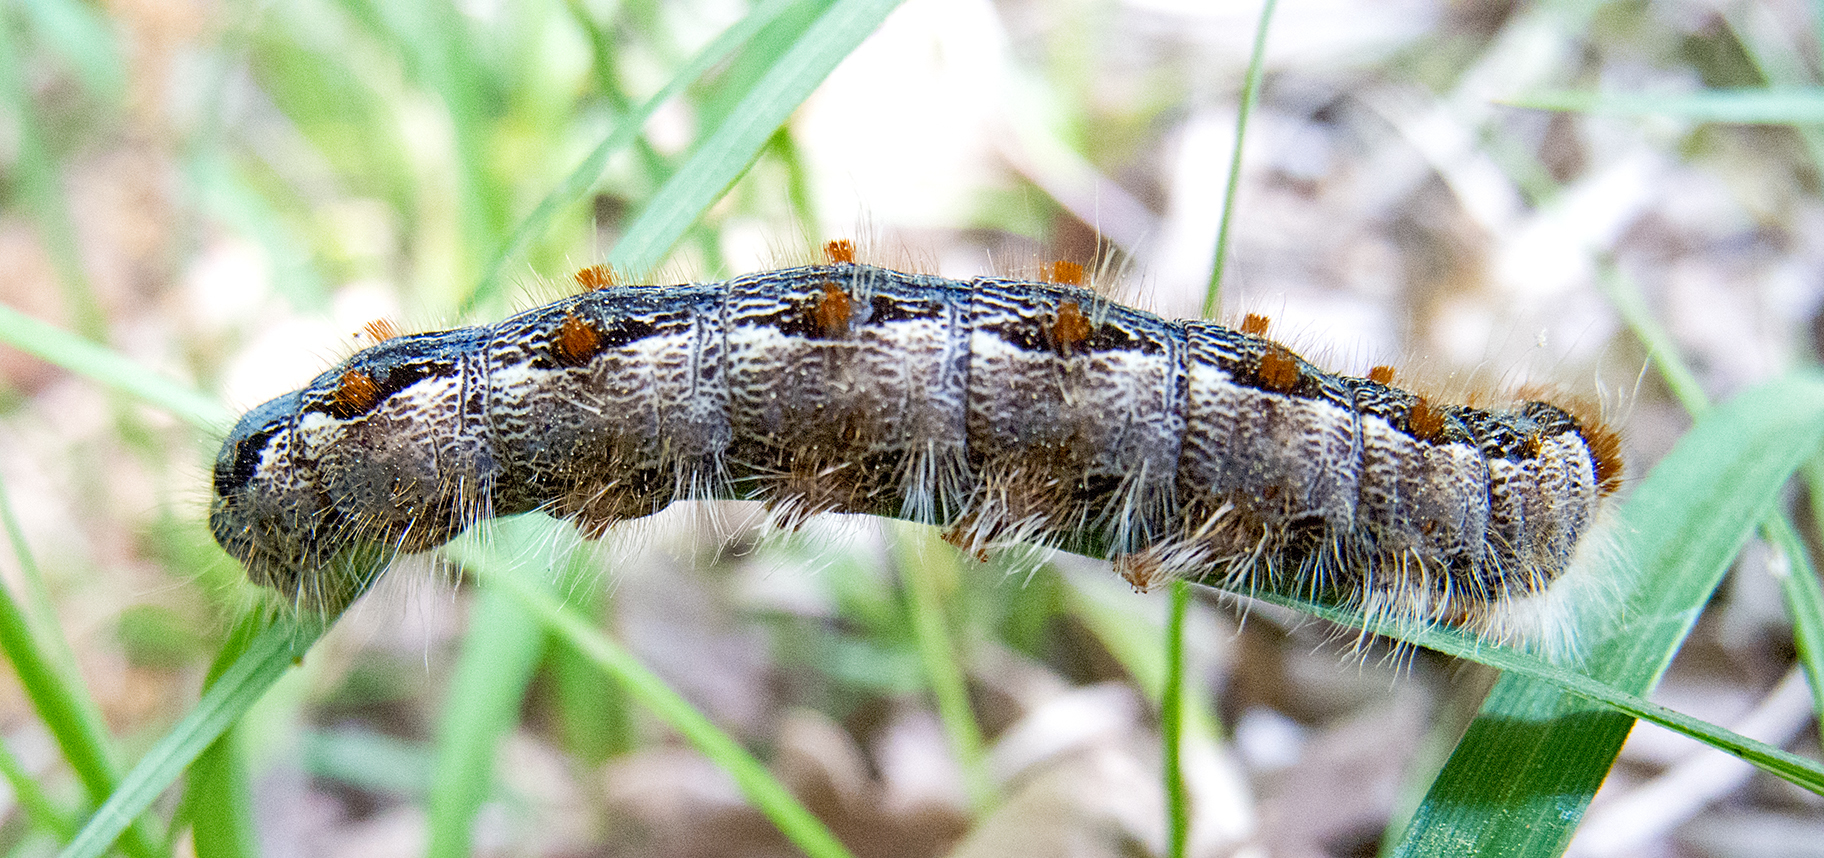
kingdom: Animalia
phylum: Arthropoda
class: Insecta
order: Lepidoptera
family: Lasiocampidae
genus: Eriogaster
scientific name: Eriogaster rimicola
